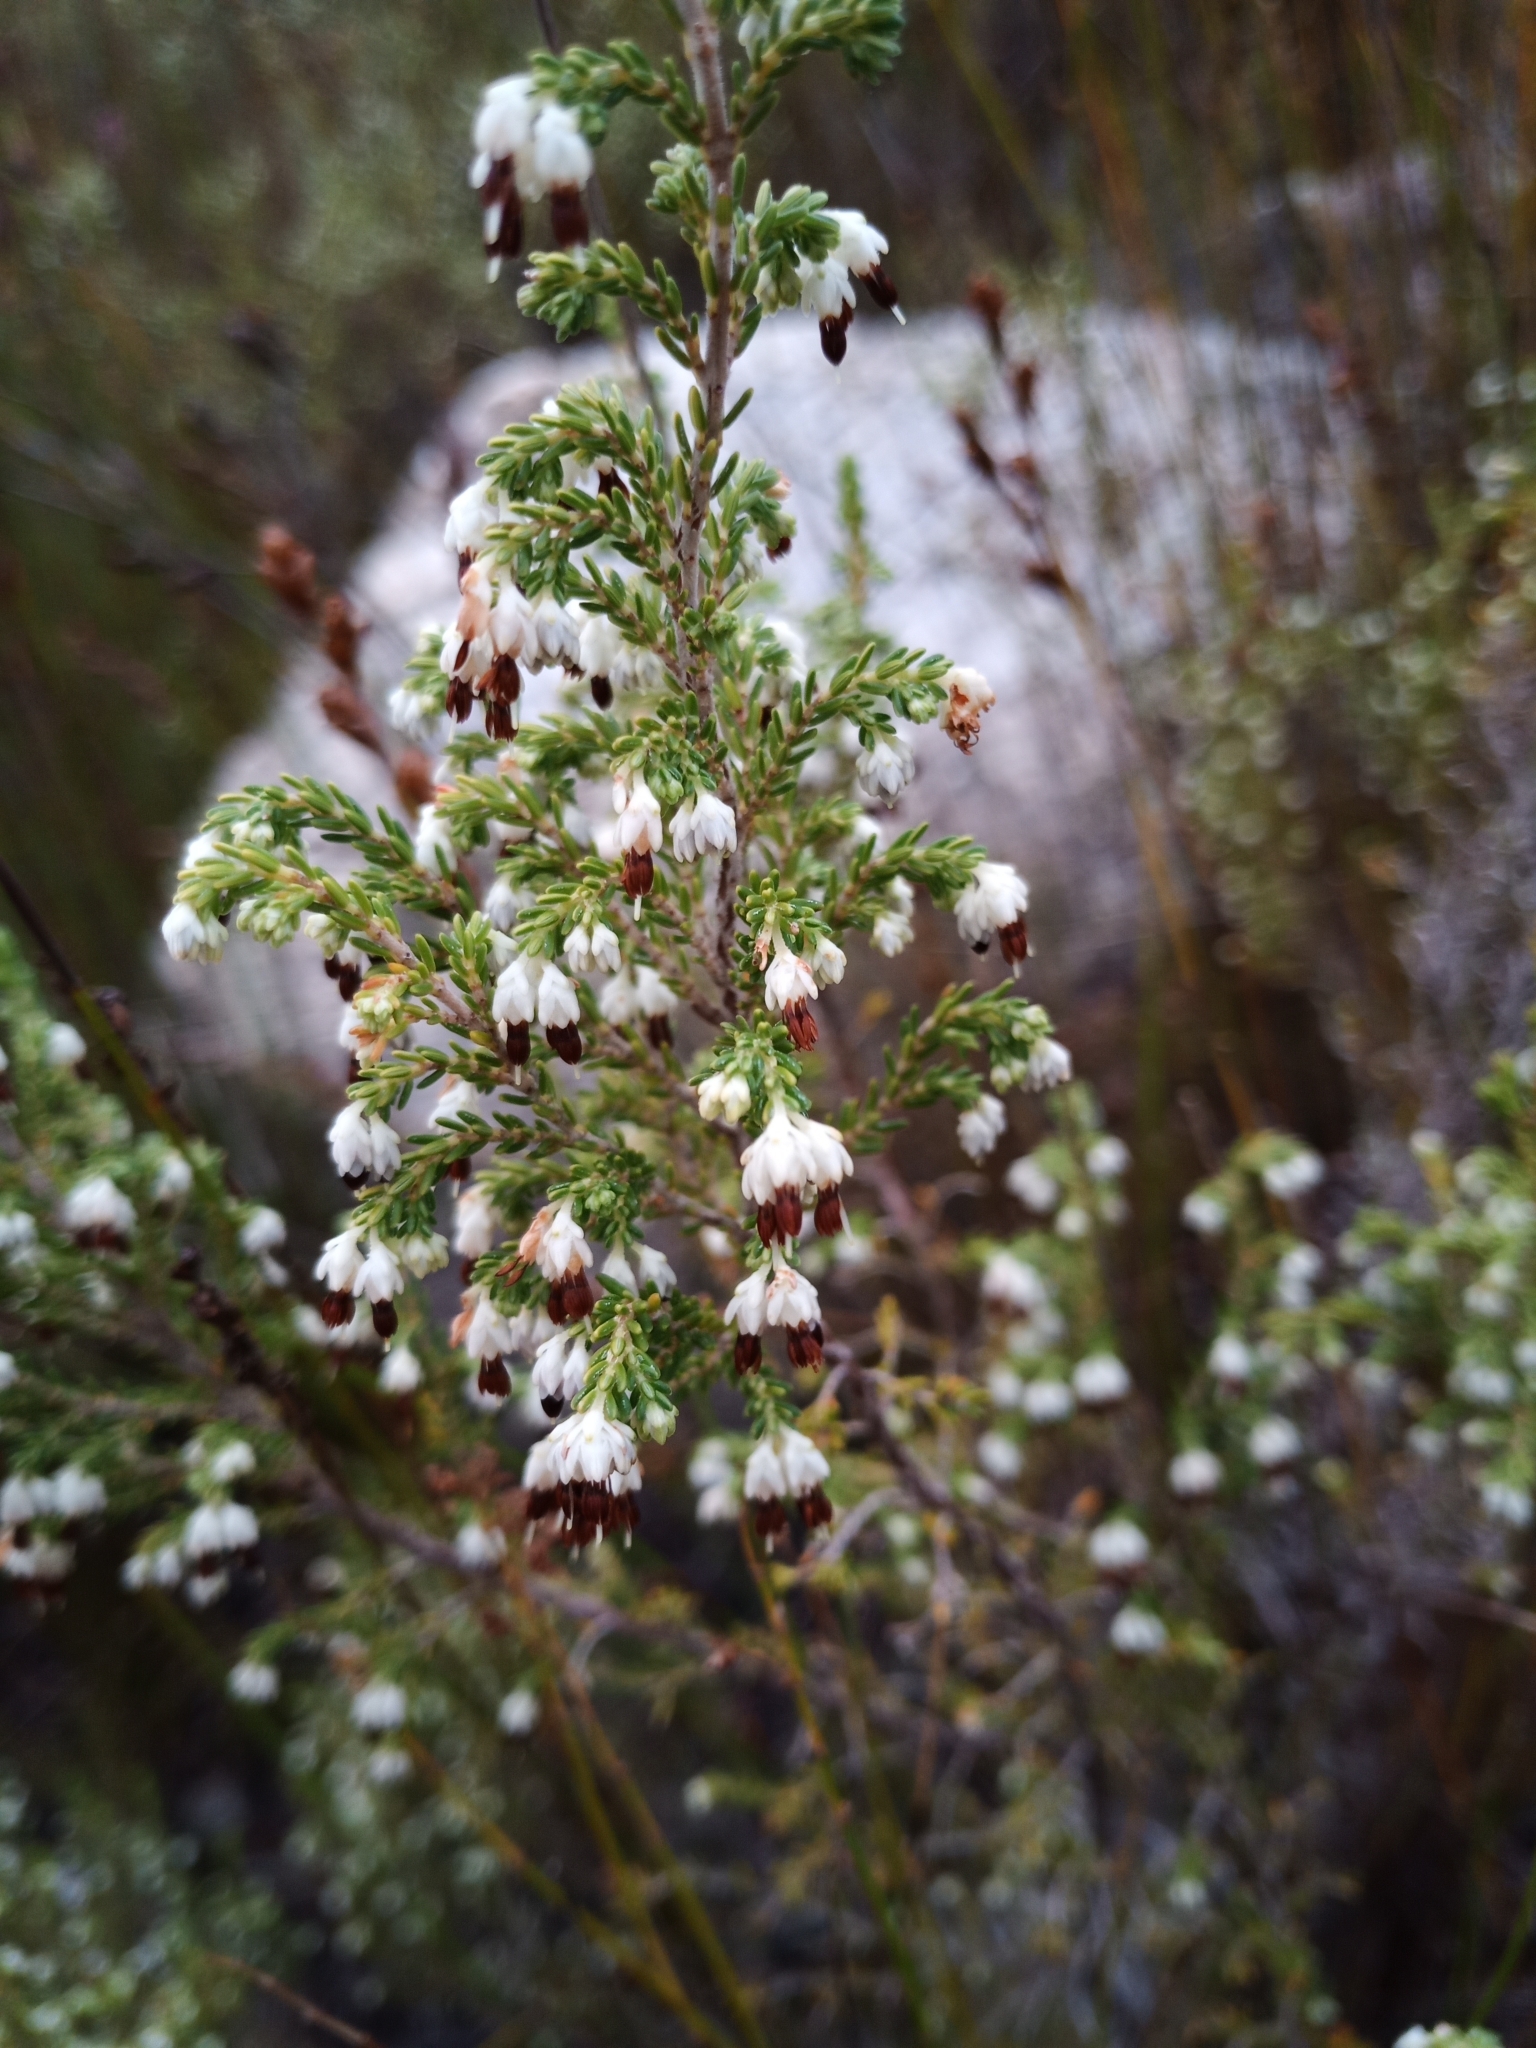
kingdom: Plantae
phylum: Tracheophyta
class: Magnoliopsida
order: Ericales
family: Ericaceae
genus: Erica
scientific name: Erica imbricata
